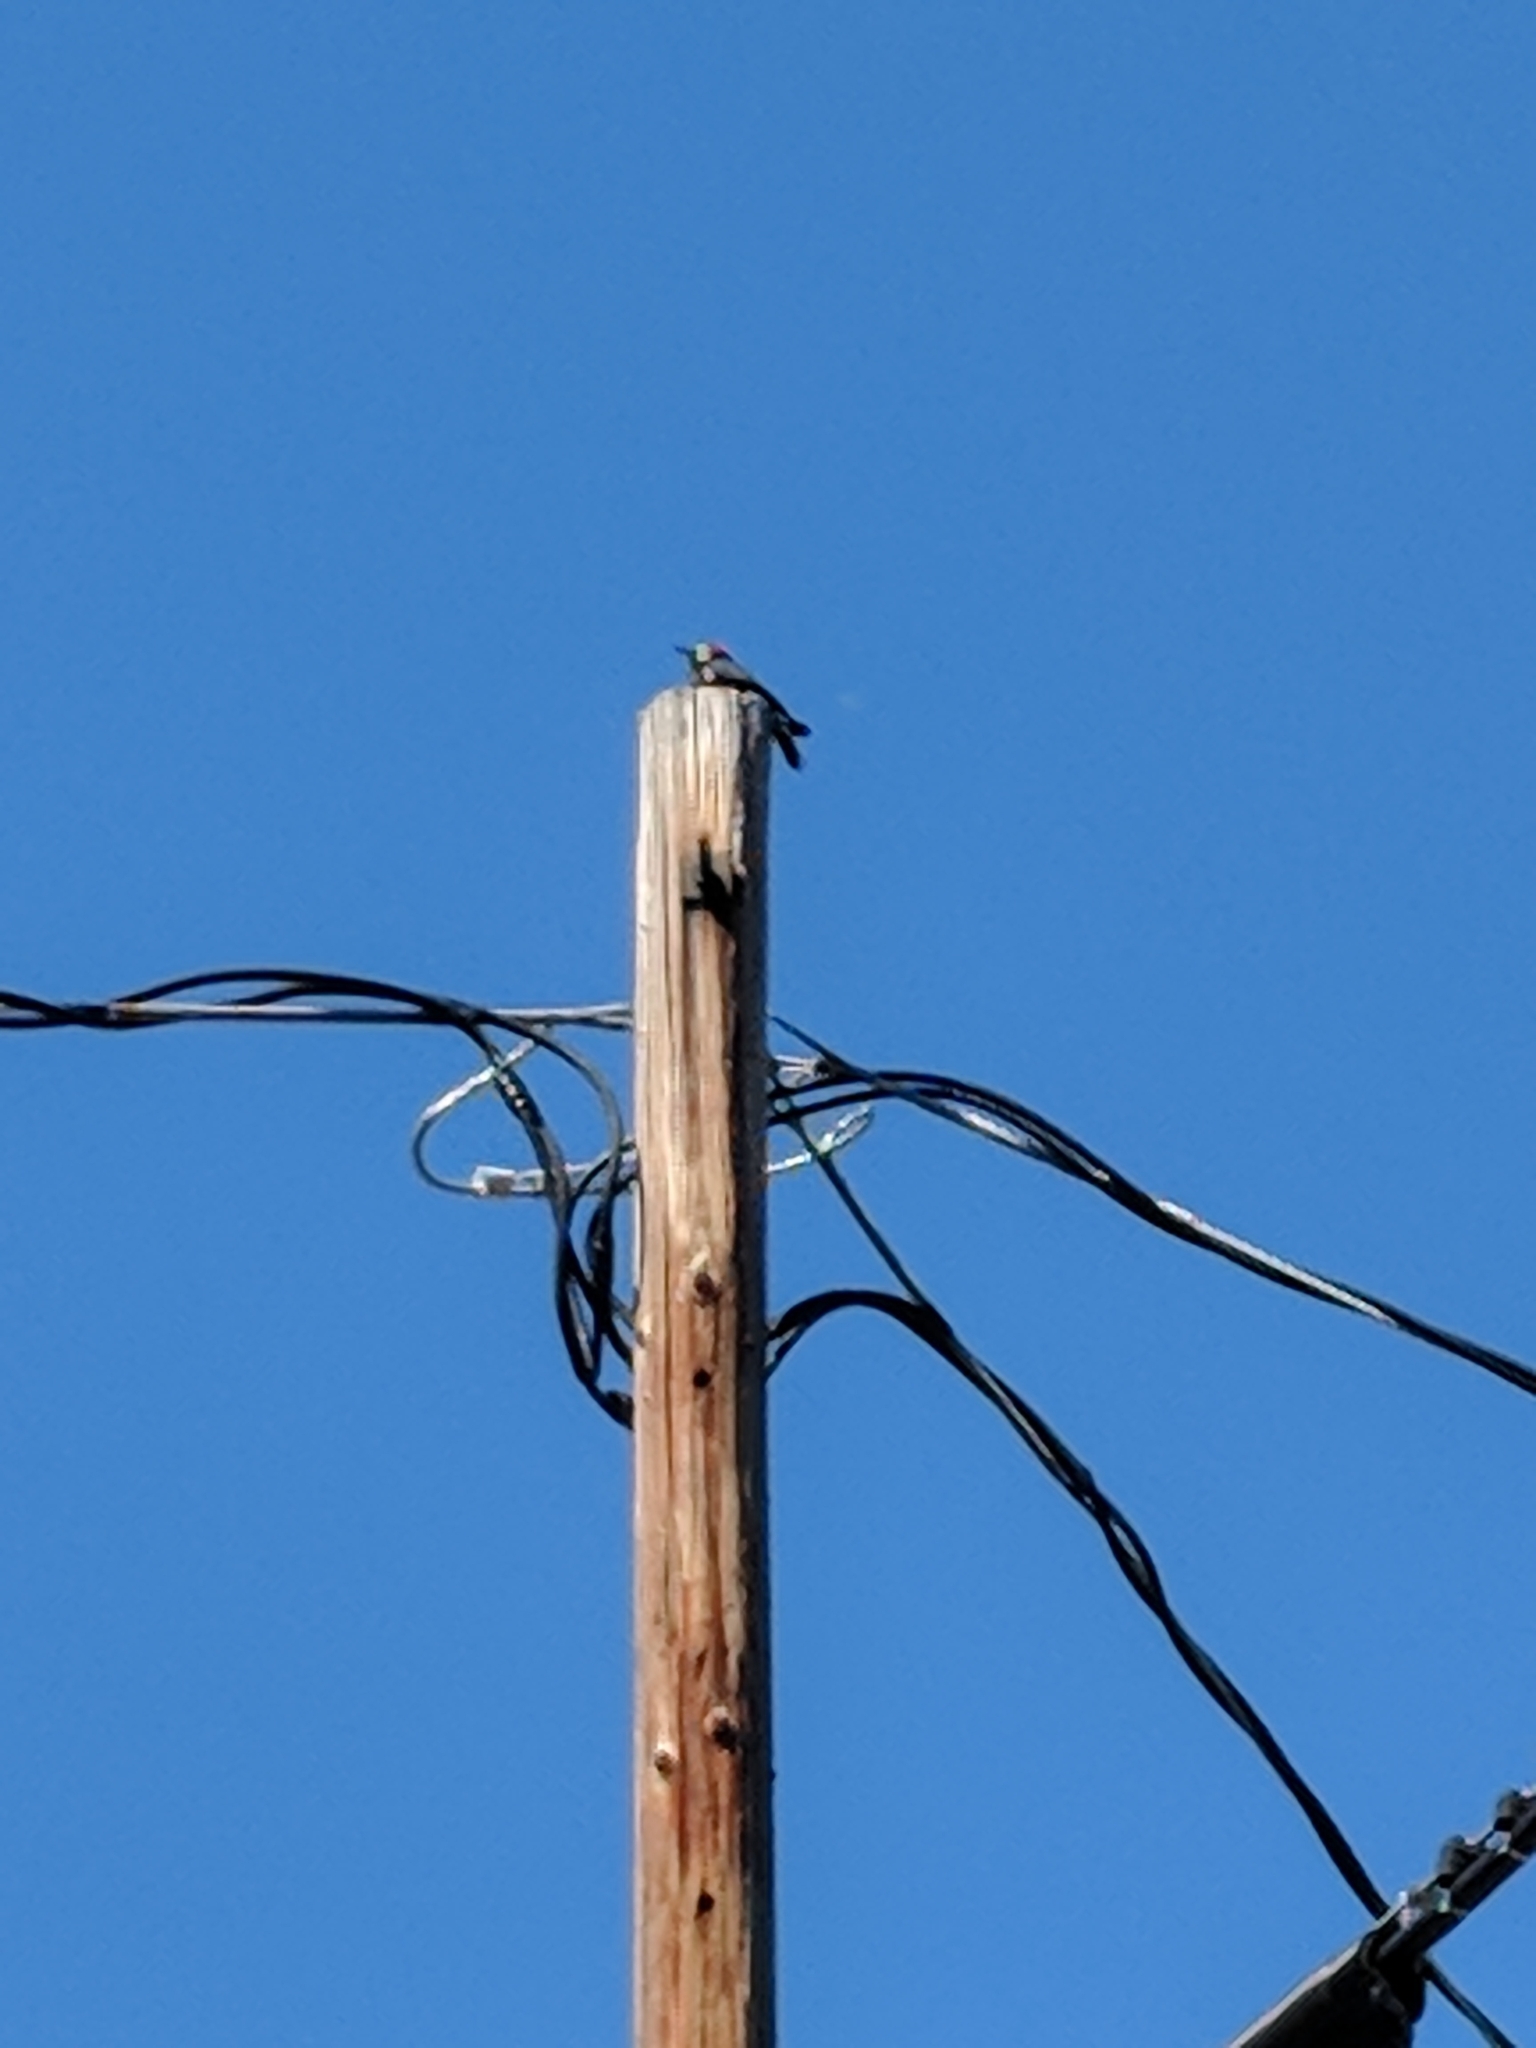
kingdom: Animalia
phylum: Chordata
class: Aves
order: Piciformes
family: Picidae
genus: Melanerpes
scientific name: Melanerpes formicivorus
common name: Acorn woodpecker
